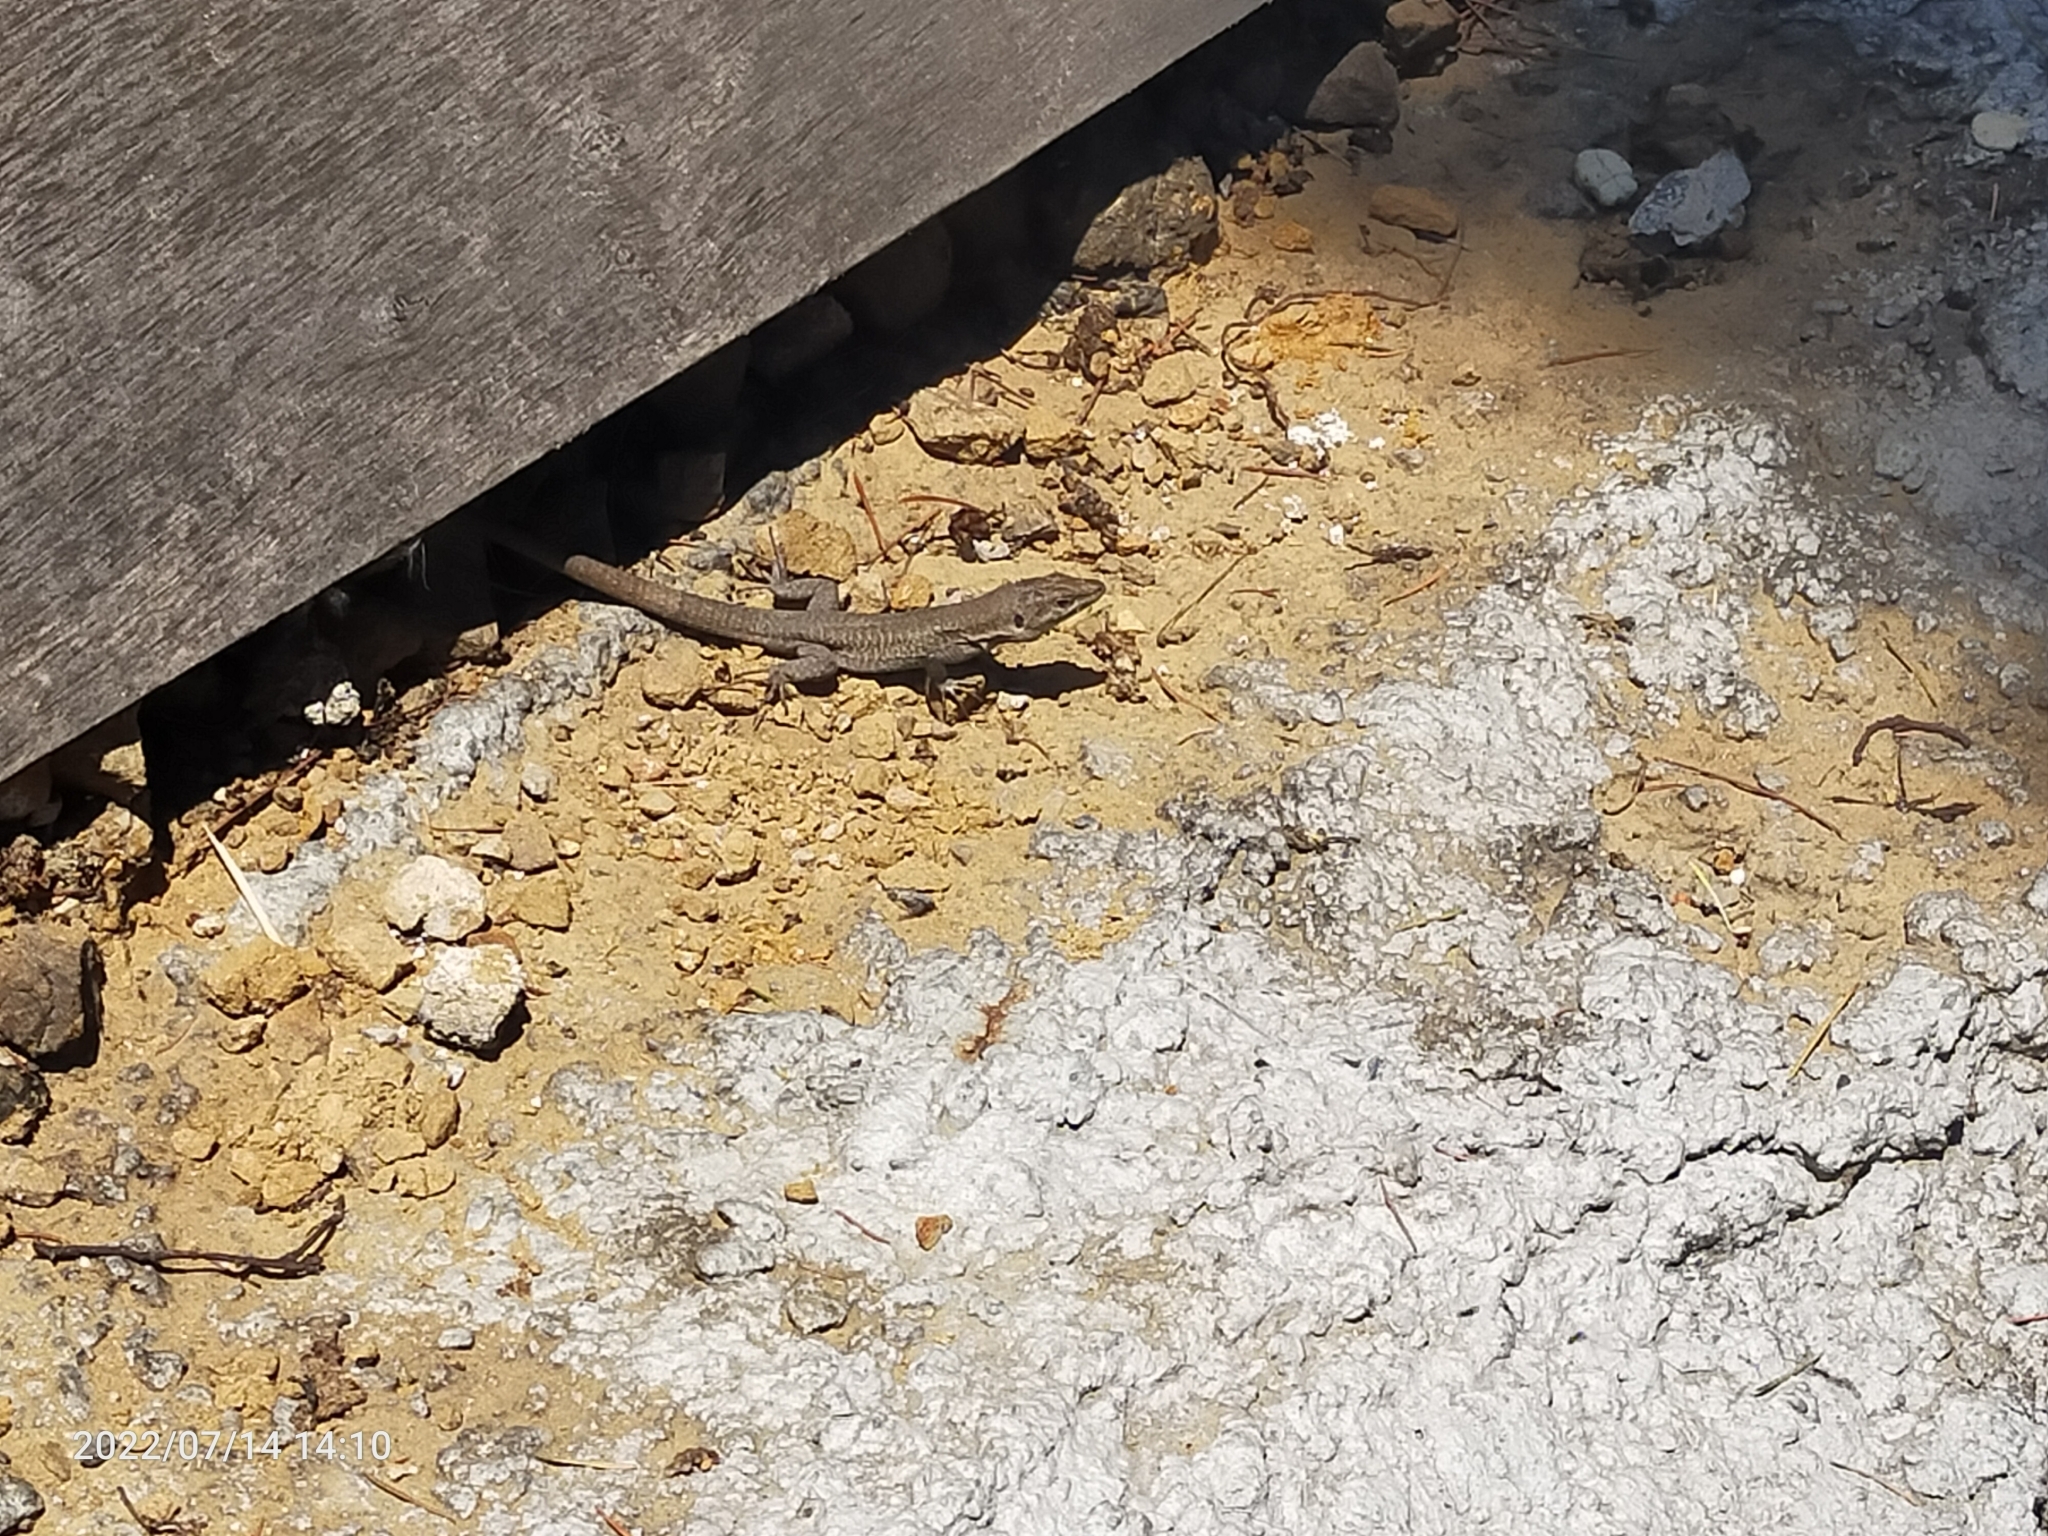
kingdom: Animalia
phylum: Chordata
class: Squamata
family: Lacertidae
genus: Podarcis
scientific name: Podarcis siculus
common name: Italian wall lizard
